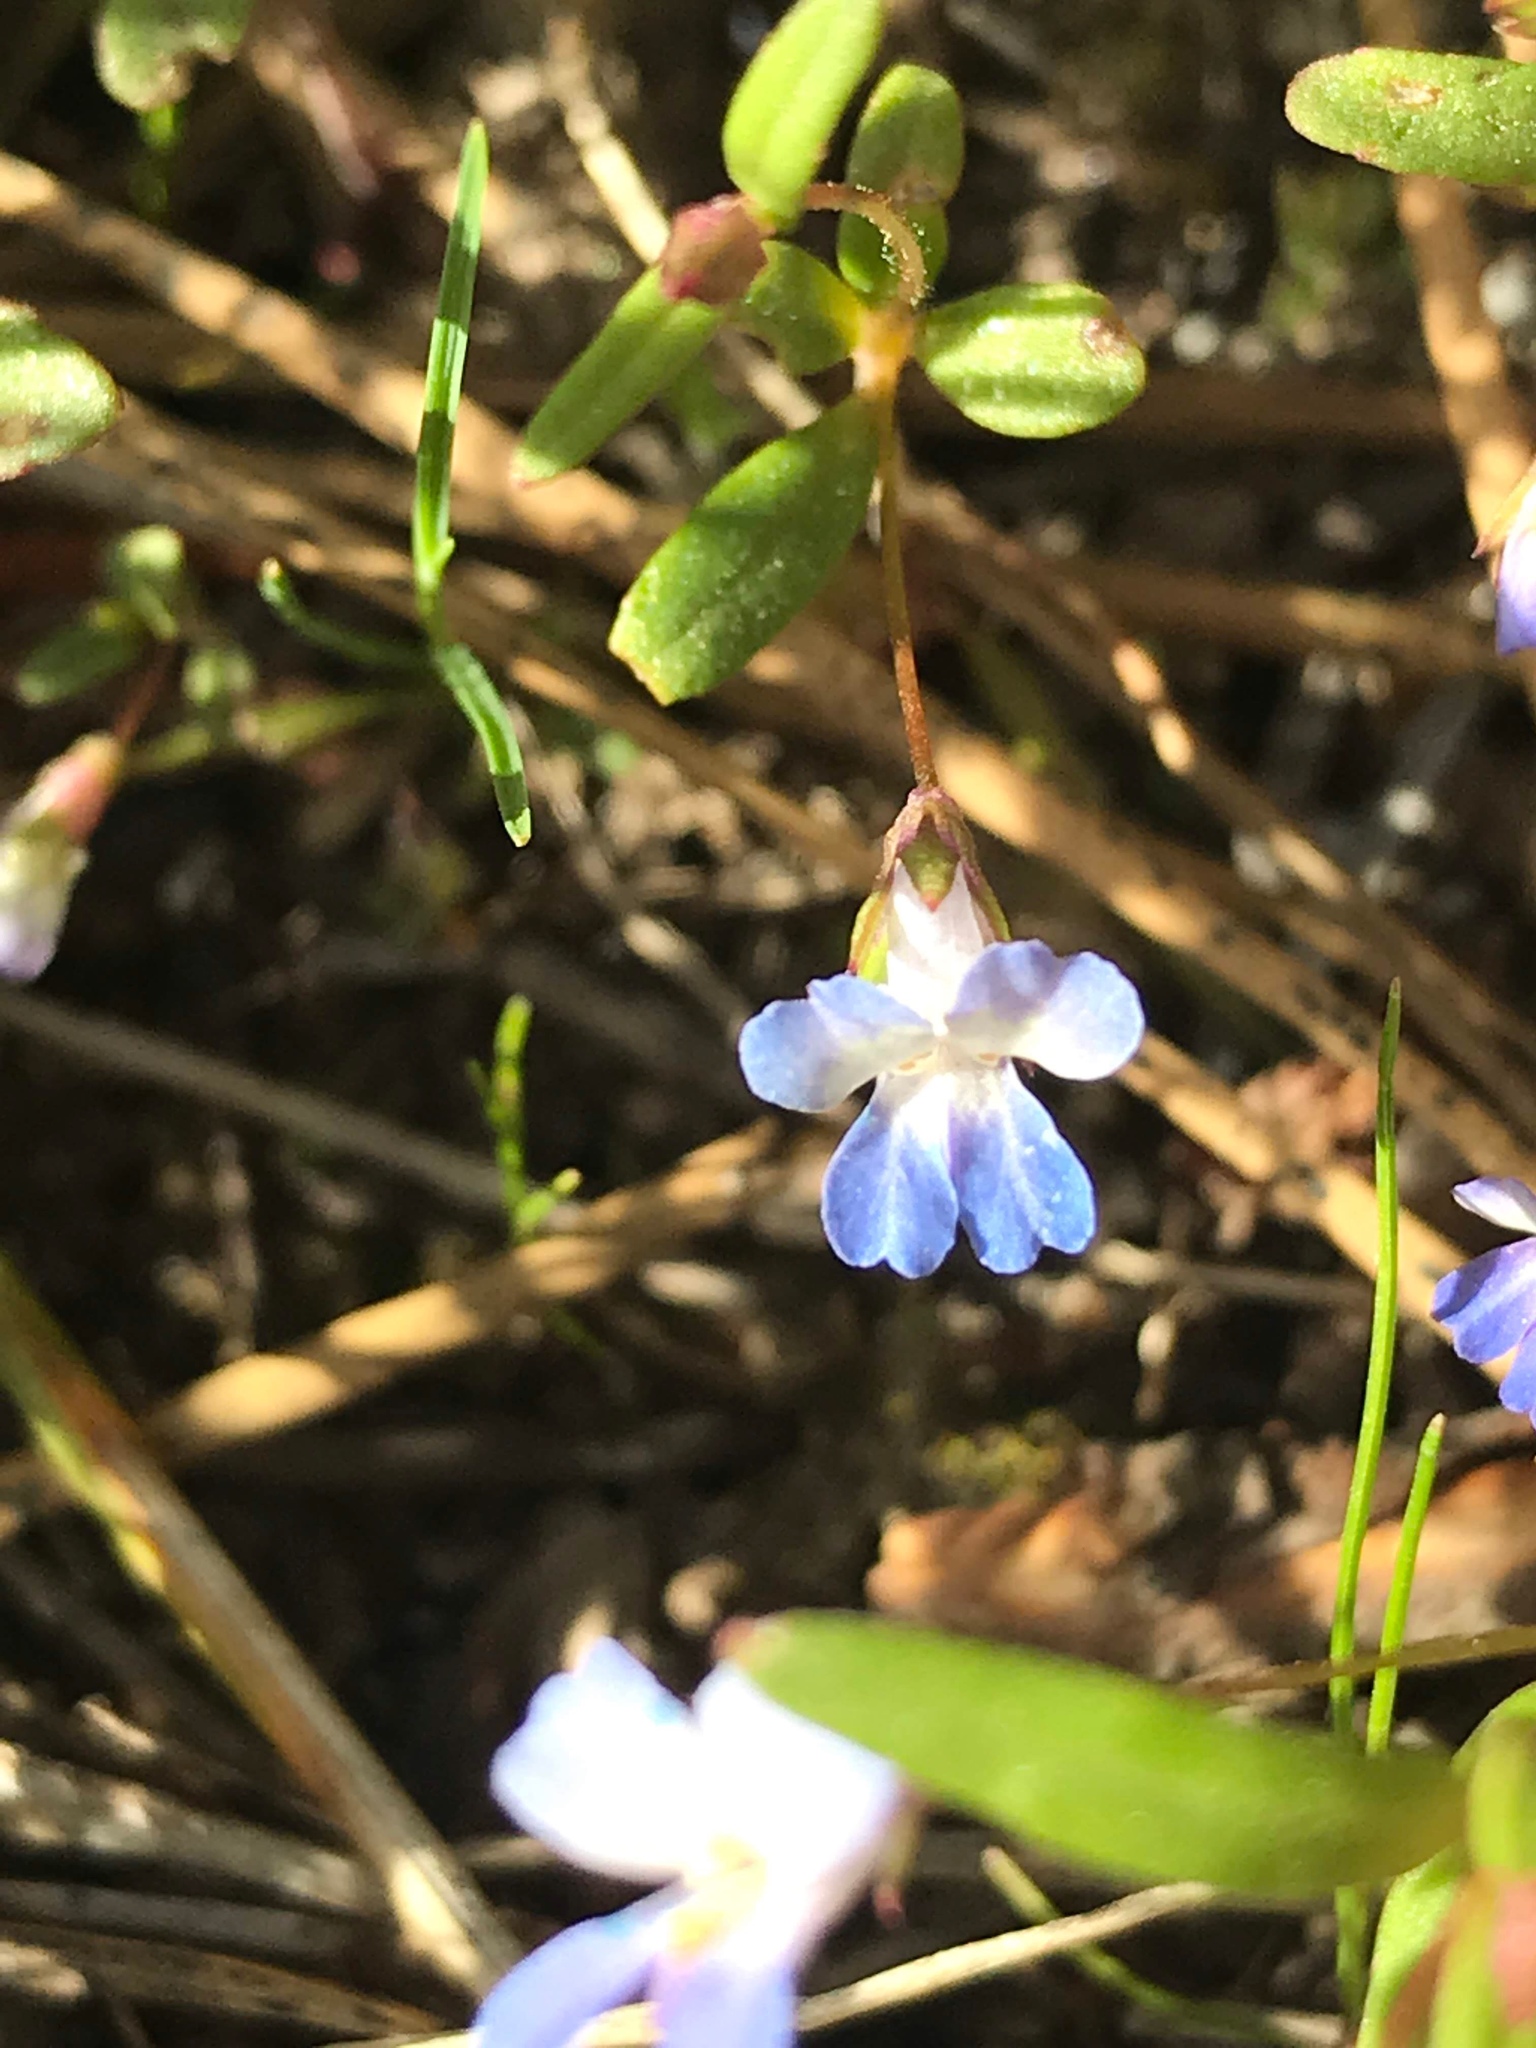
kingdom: Plantae
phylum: Tracheophyta
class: Magnoliopsida
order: Lamiales
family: Plantaginaceae
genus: Collinsia
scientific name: Collinsia parviflora
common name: Blue-lips
